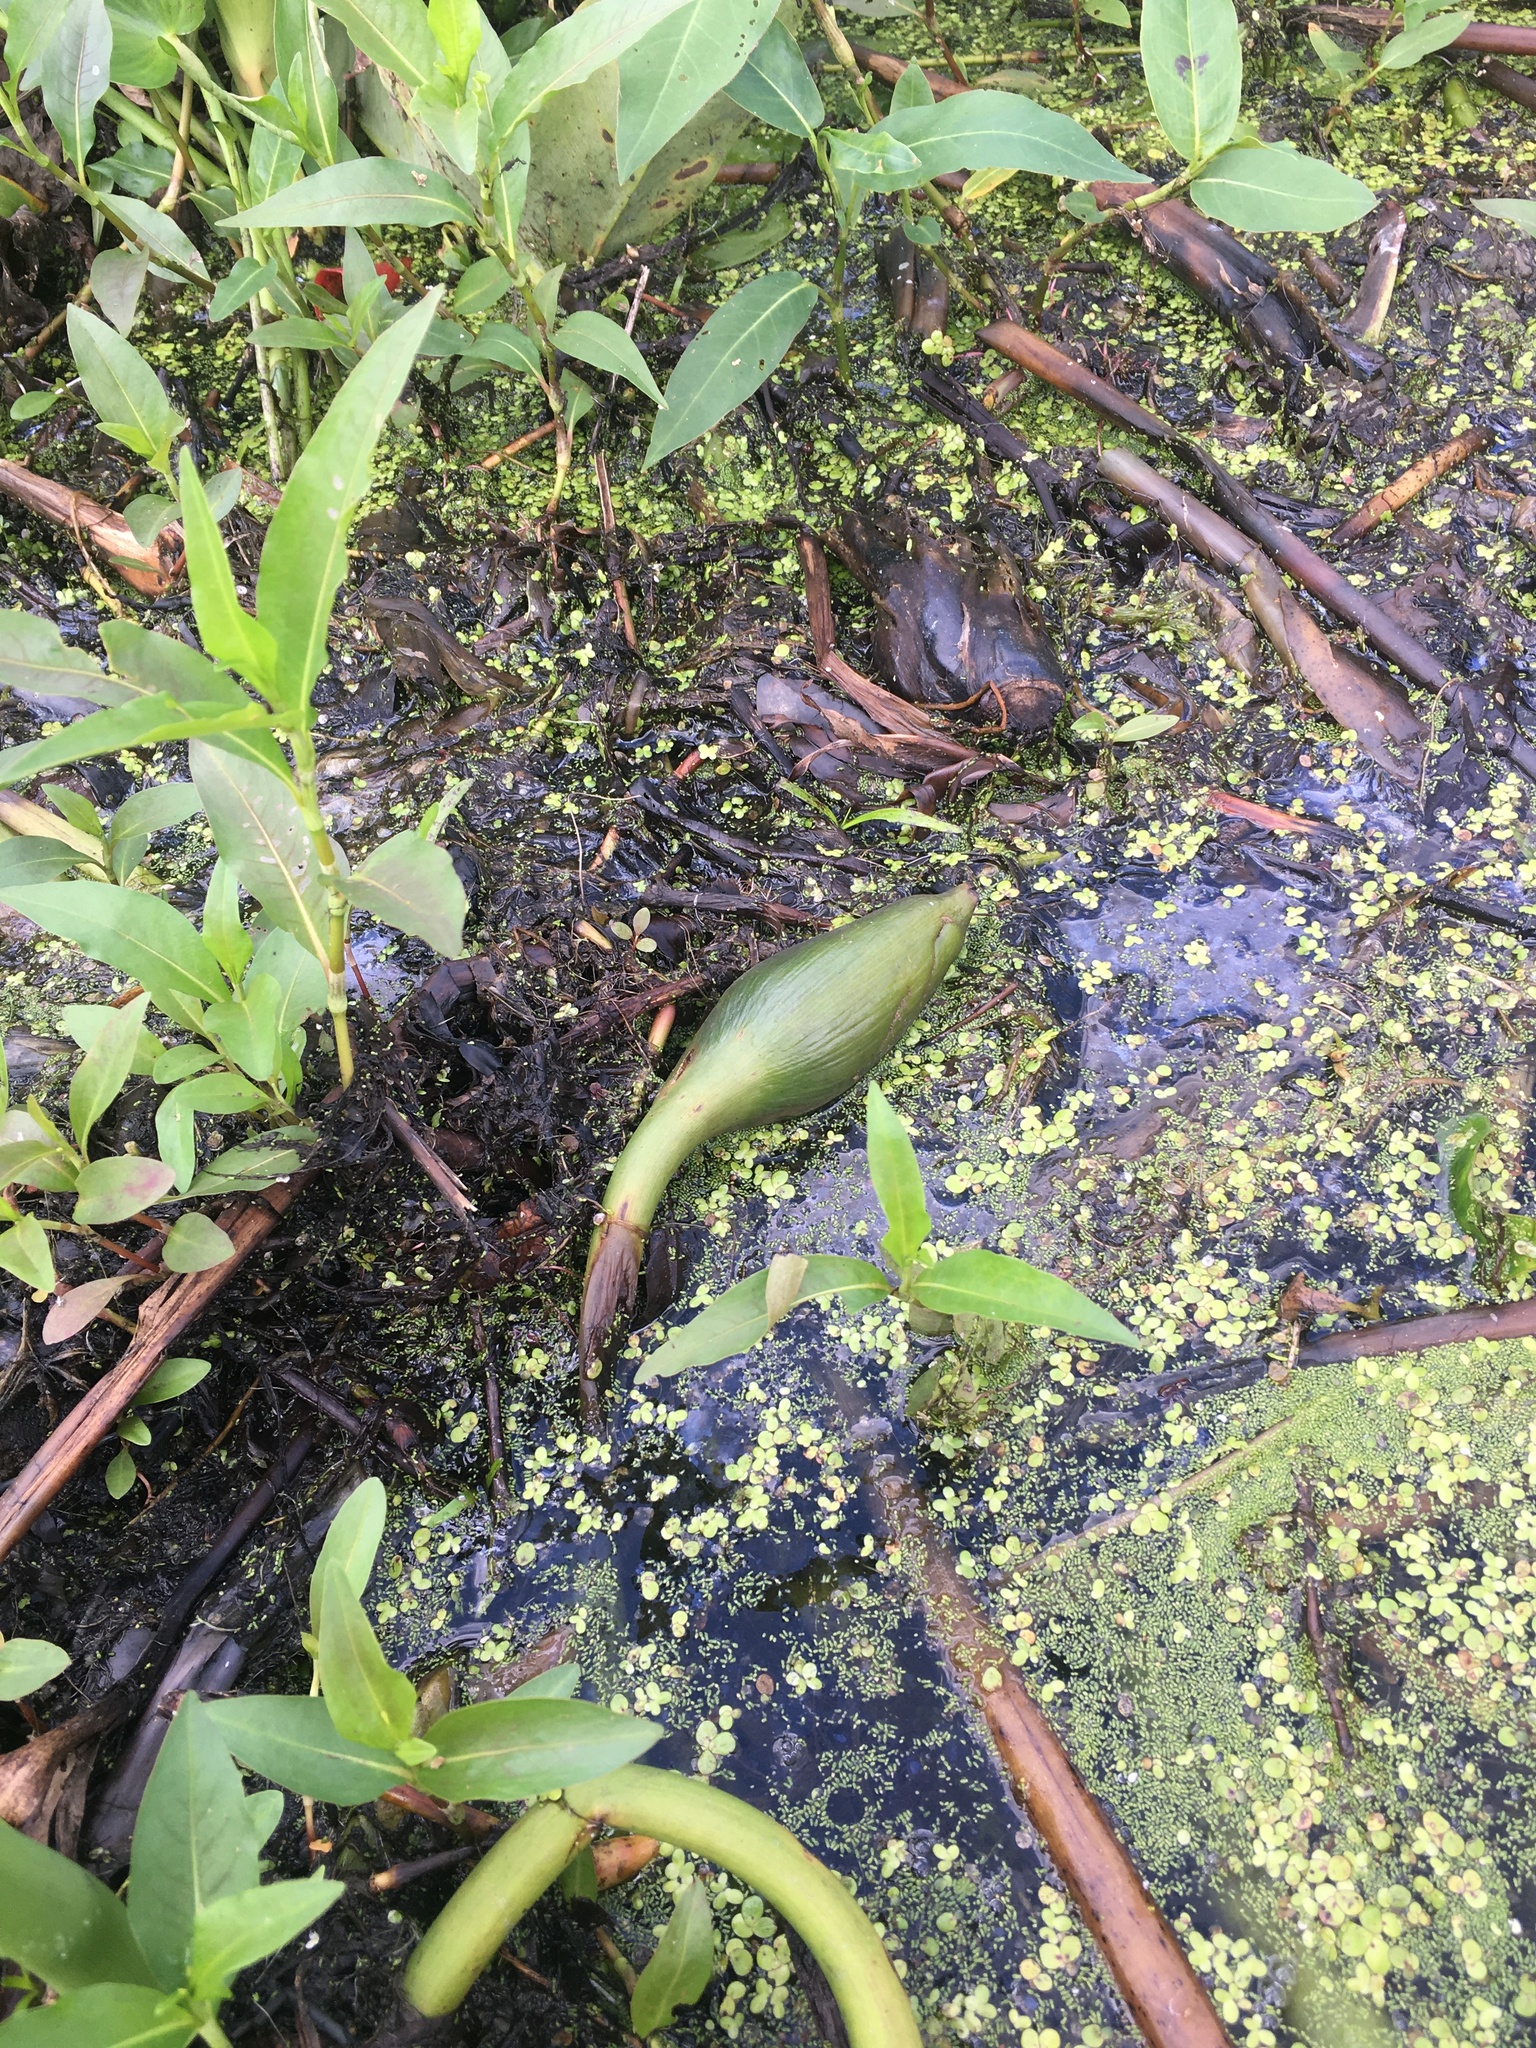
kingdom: Plantae
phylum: Tracheophyta
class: Liliopsida
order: Alismatales
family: Araceae
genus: Peltandra
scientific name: Peltandra virginica
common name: Arrow arum
